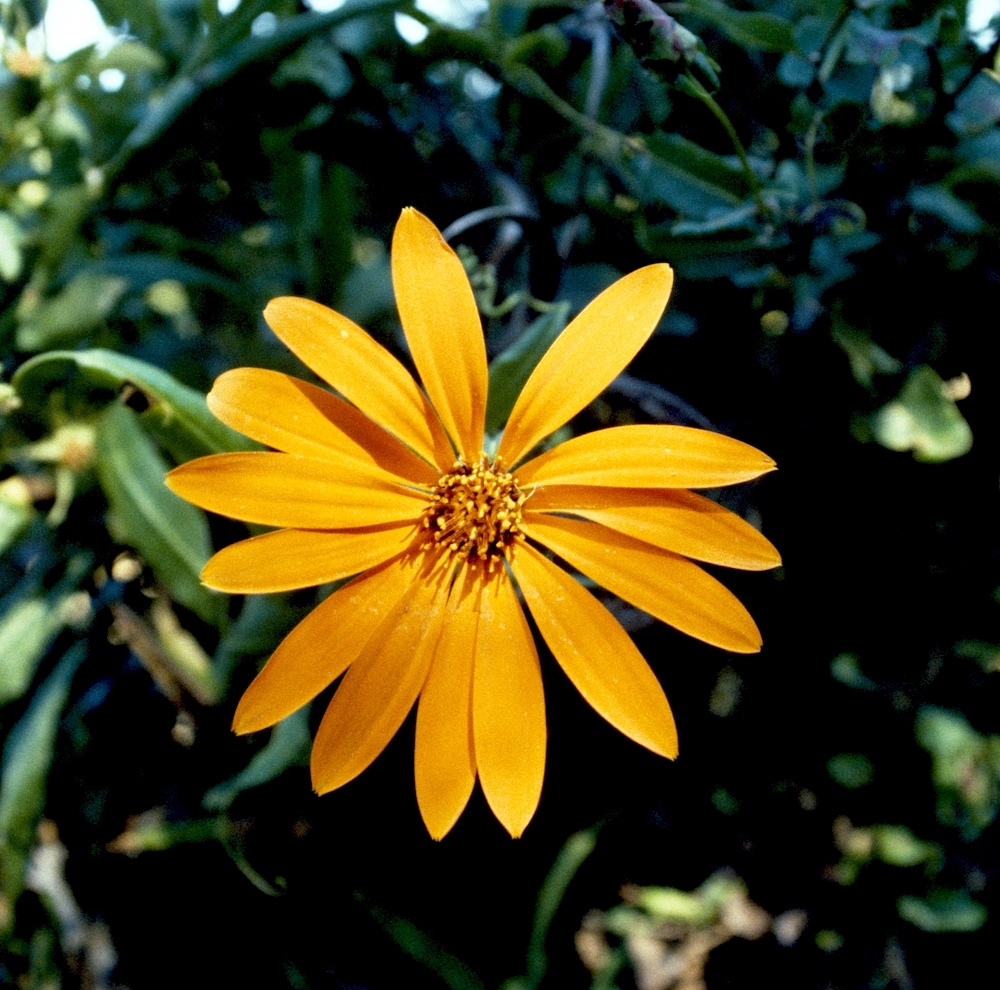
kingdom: Plantae
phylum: Tracheophyta
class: Magnoliopsida
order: Asterales
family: Asteraceae
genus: Mutisia
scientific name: Mutisia decurrens
